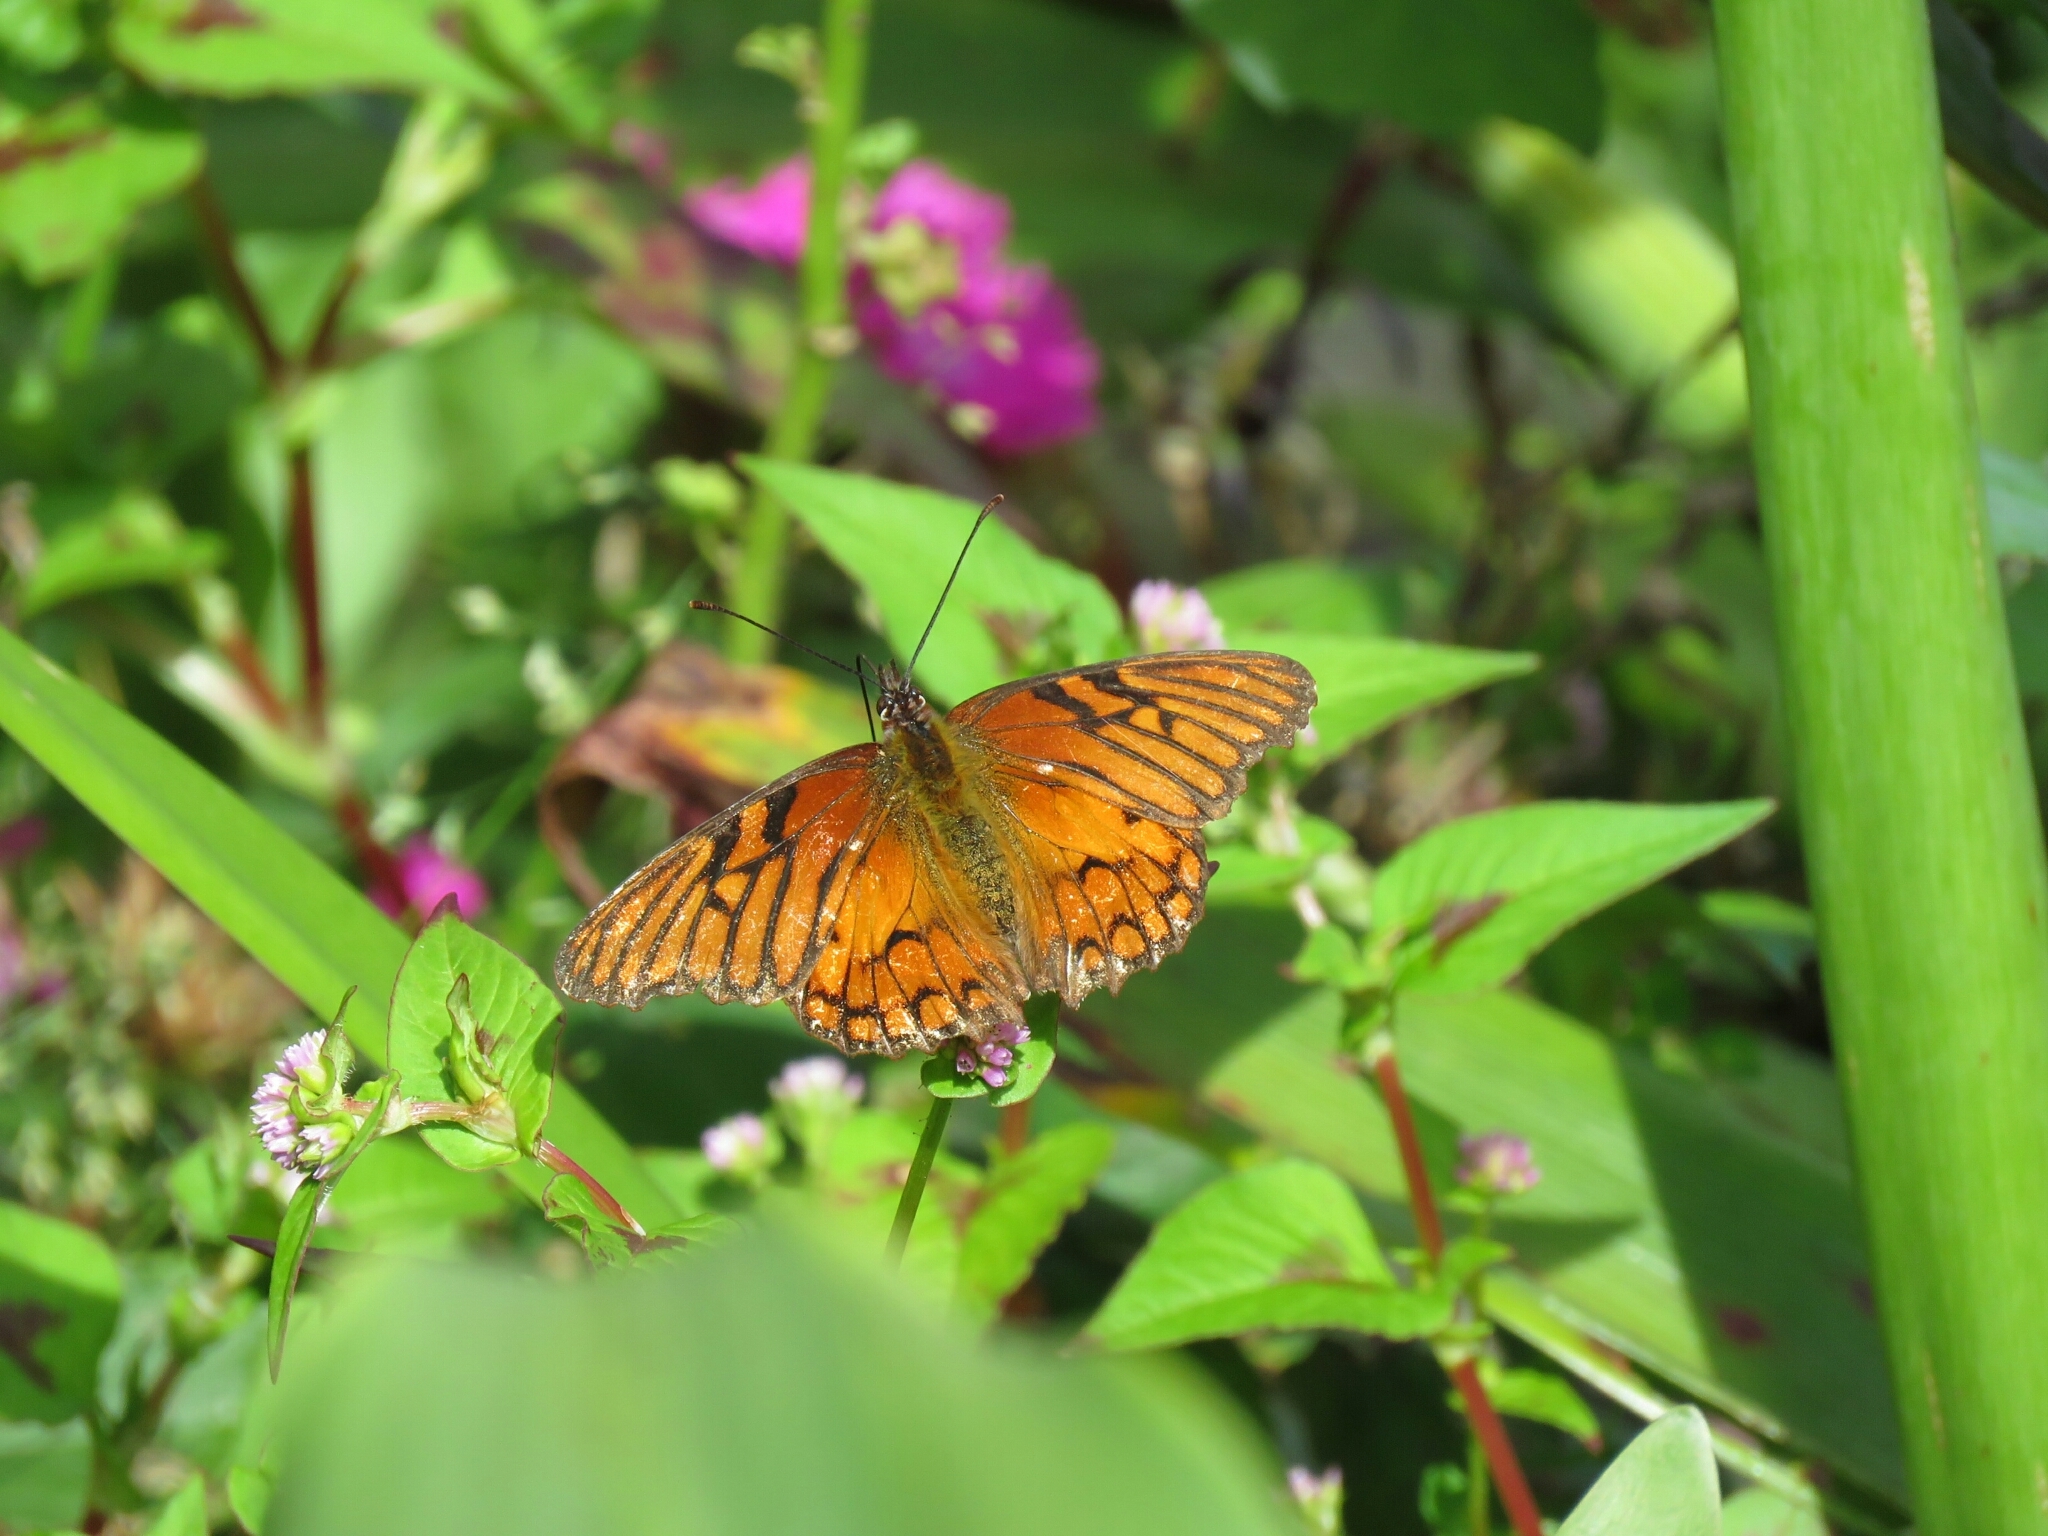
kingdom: Plantae
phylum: Tracheophyta
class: Magnoliopsida
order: Caryophyllales
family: Polygonaceae
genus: Persicaria
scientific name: Persicaria nepalensis
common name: Nepal persicaria
